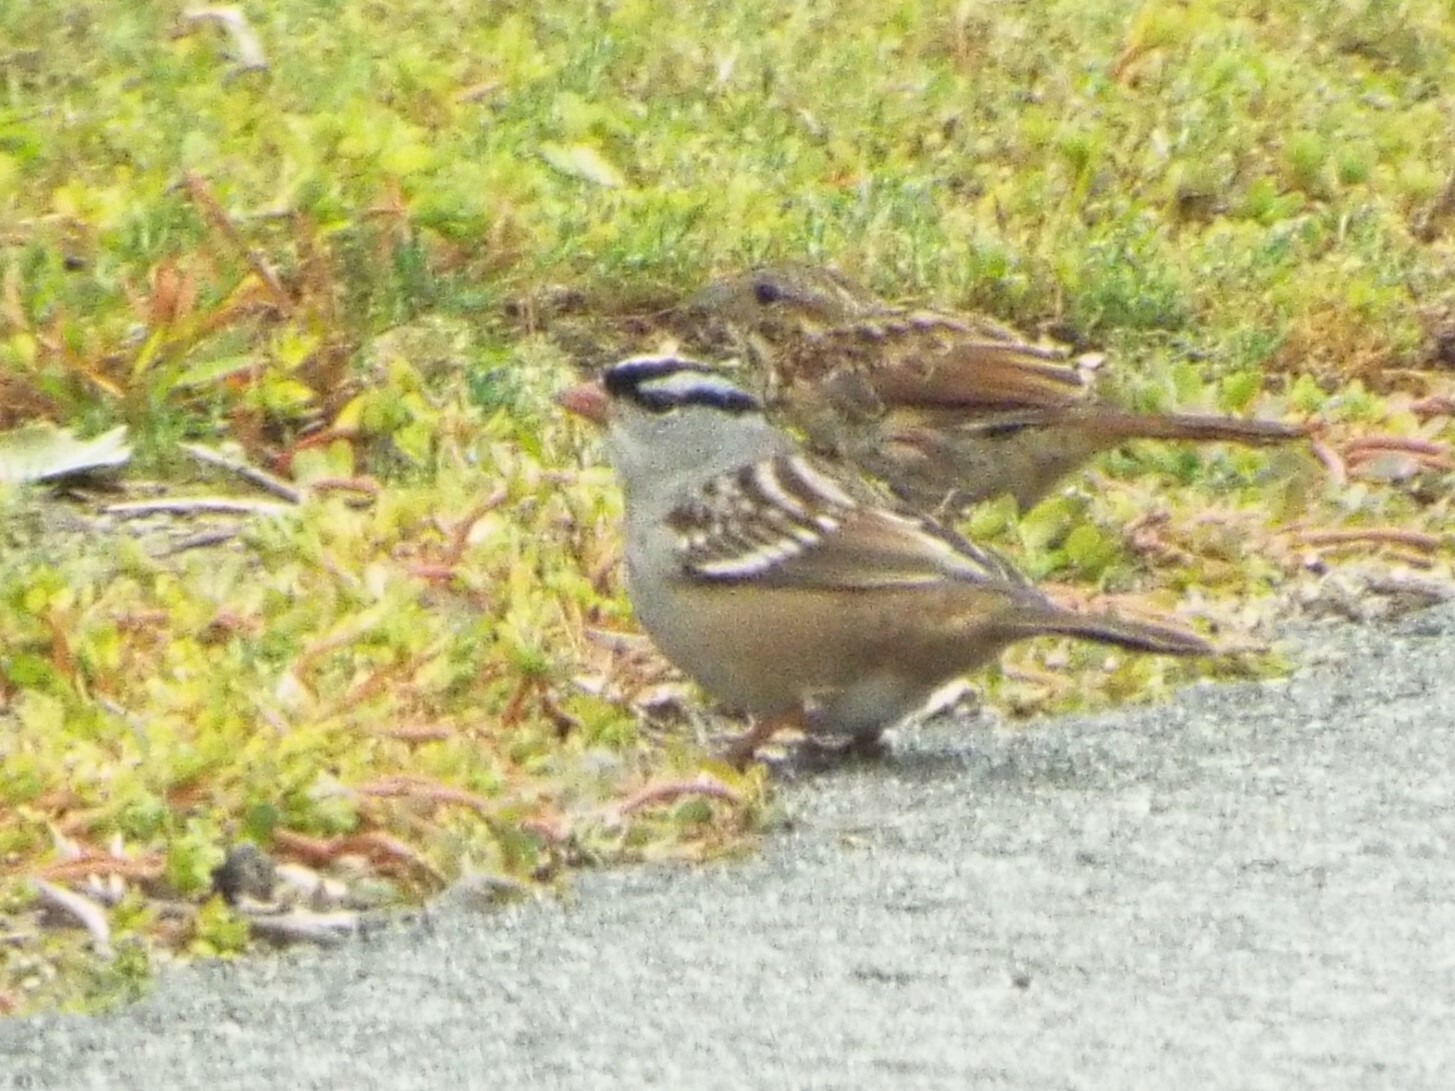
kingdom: Animalia
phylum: Chordata
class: Aves
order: Passeriformes
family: Passerellidae
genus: Zonotrichia
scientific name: Zonotrichia leucophrys
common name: White-crowned sparrow
